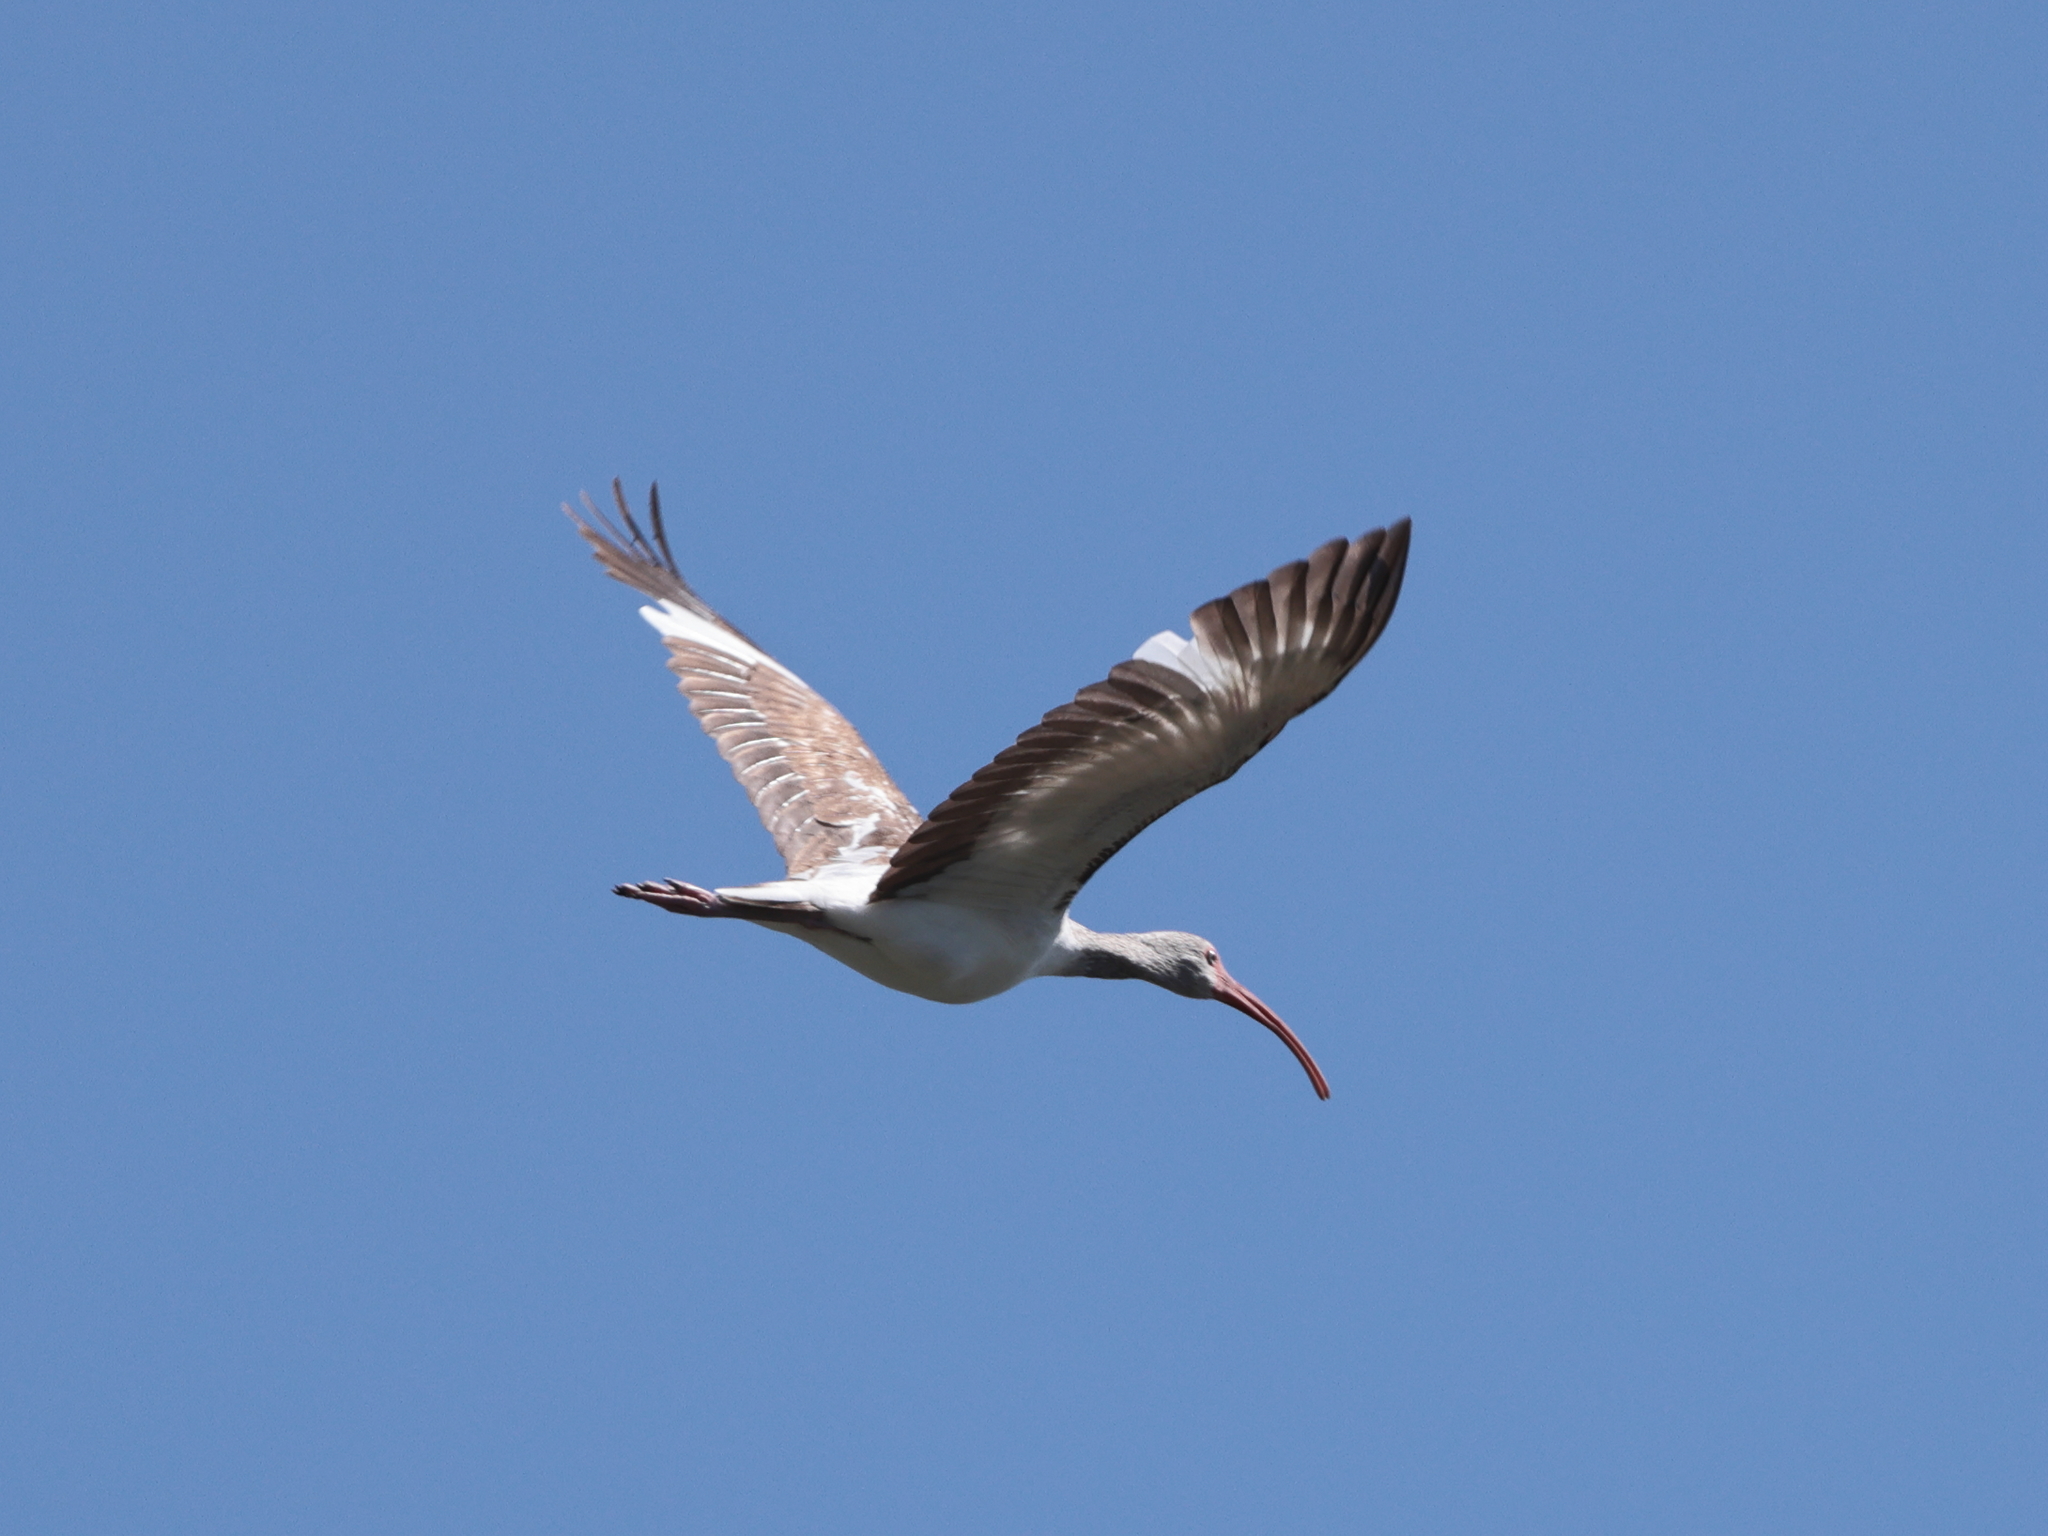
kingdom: Animalia
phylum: Chordata
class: Aves
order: Pelecaniformes
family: Threskiornithidae
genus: Eudocimus
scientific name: Eudocimus albus
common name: White ibis
